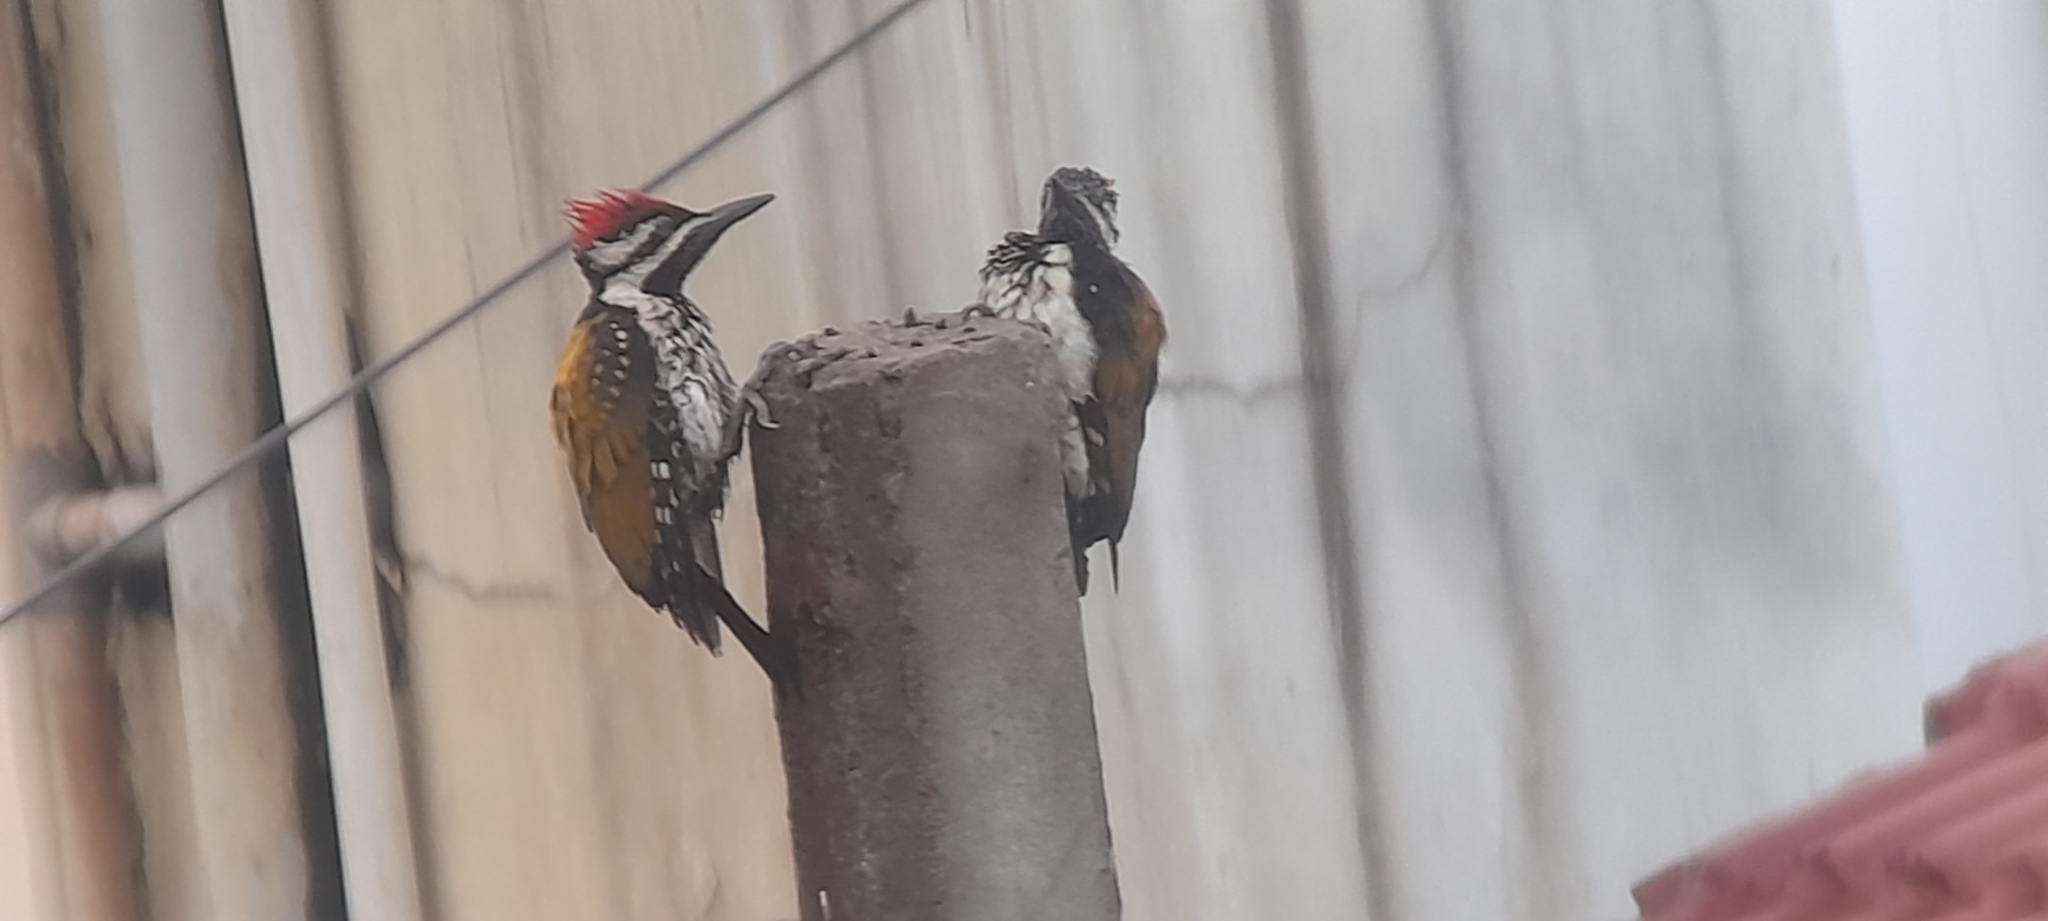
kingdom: Animalia
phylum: Chordata
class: Aves
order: Piciformes
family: Picidae
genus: Dinopium
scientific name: Dinopium benghalense
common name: Black-rumped flameback
